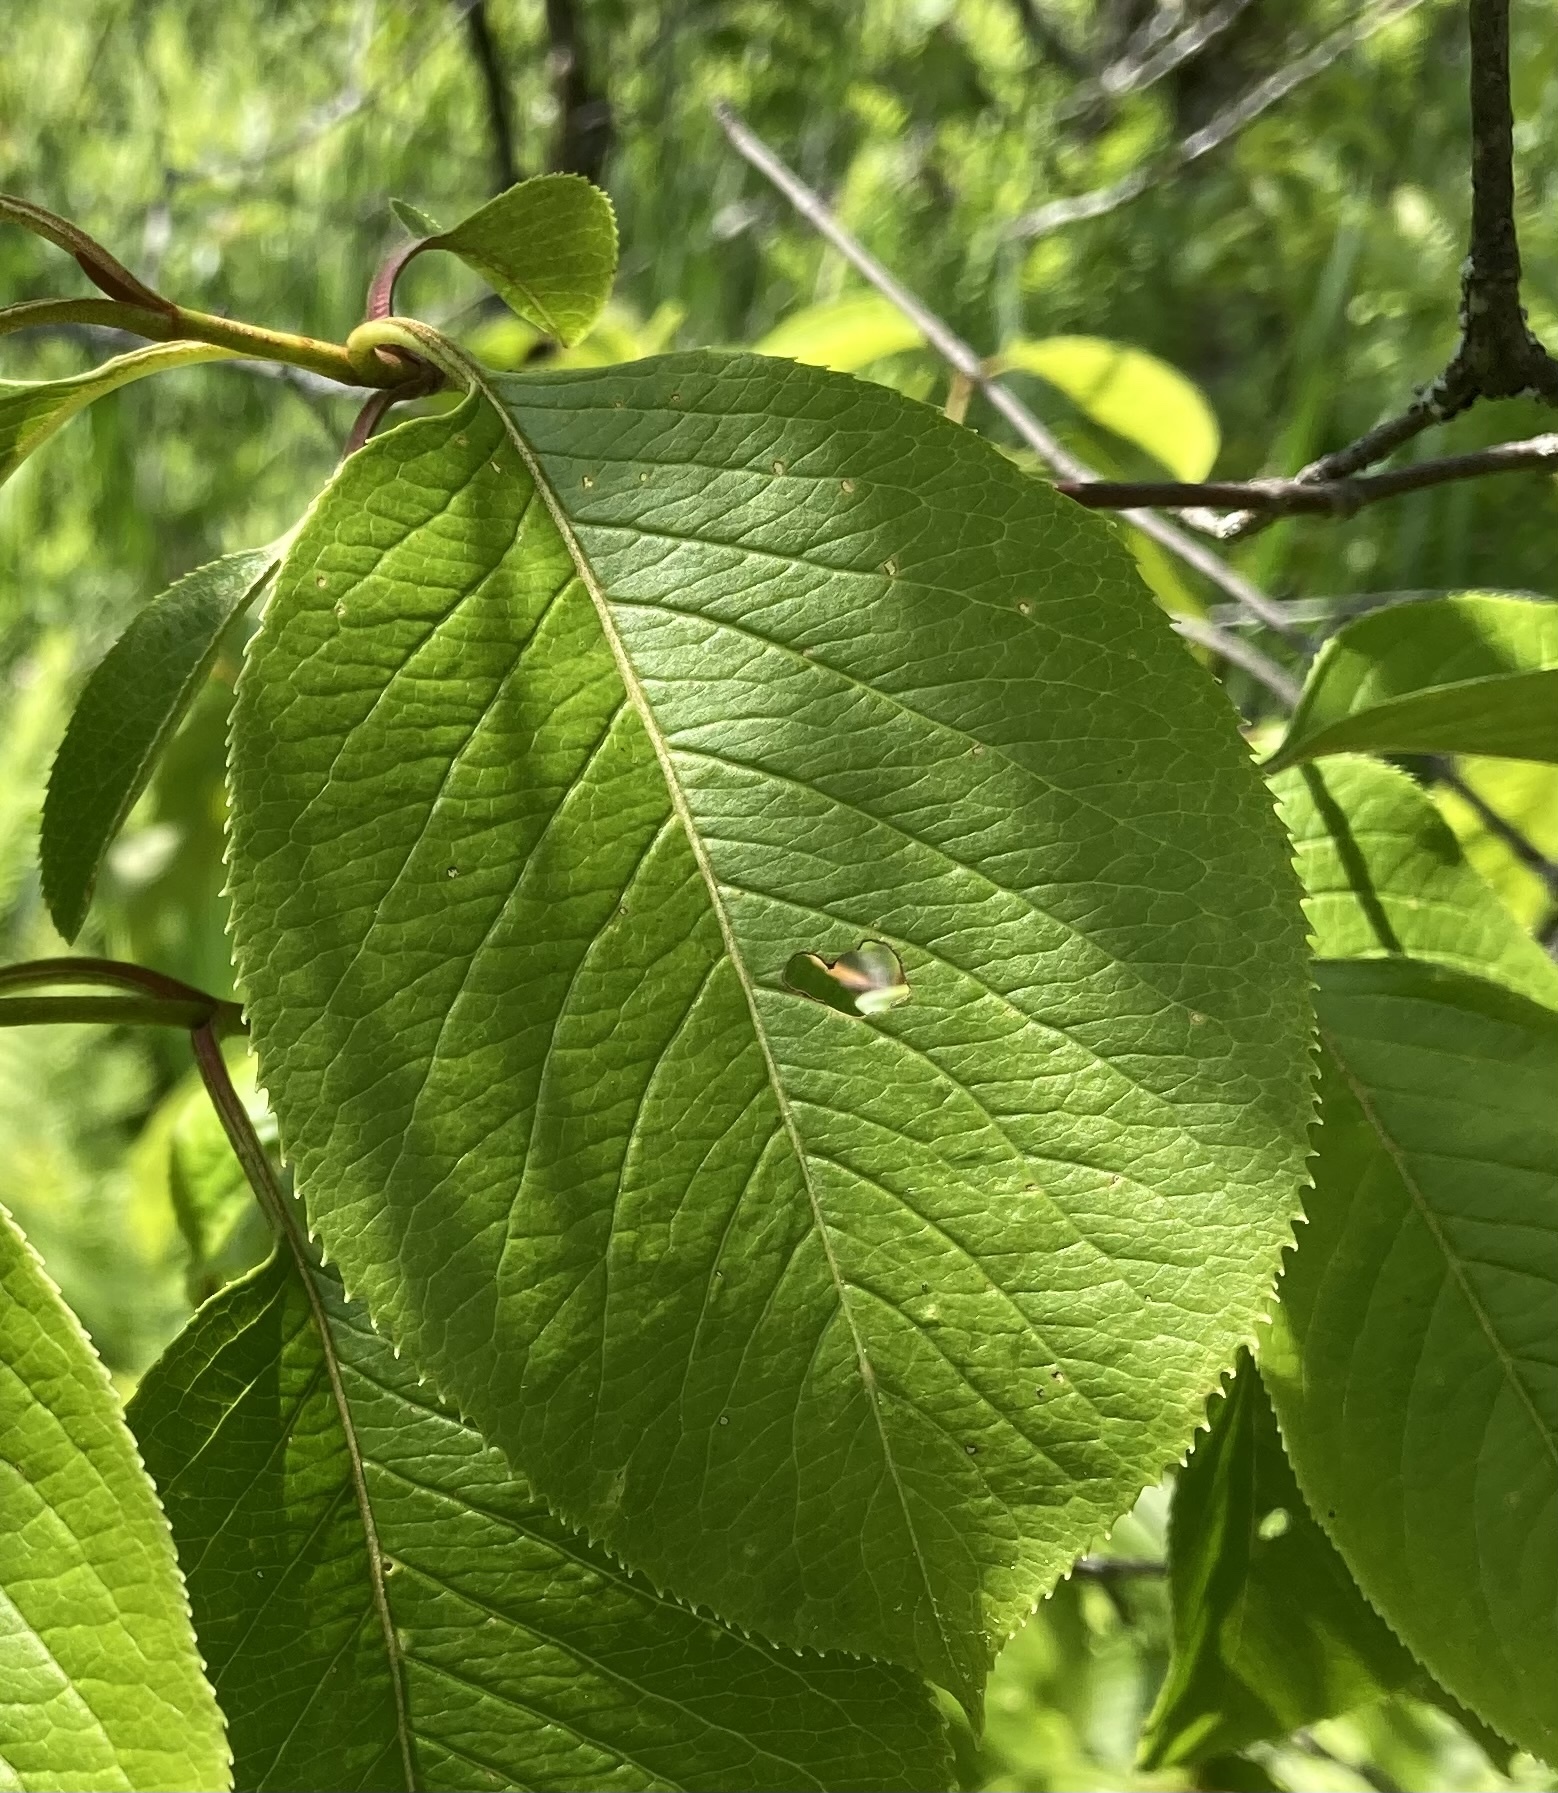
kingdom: Plantae
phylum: Tracheophyta
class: Magnoliopsida
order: Dipsacales
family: Viburnaceae
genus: Viburnum
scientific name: Viburnum lentago
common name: Black haw
